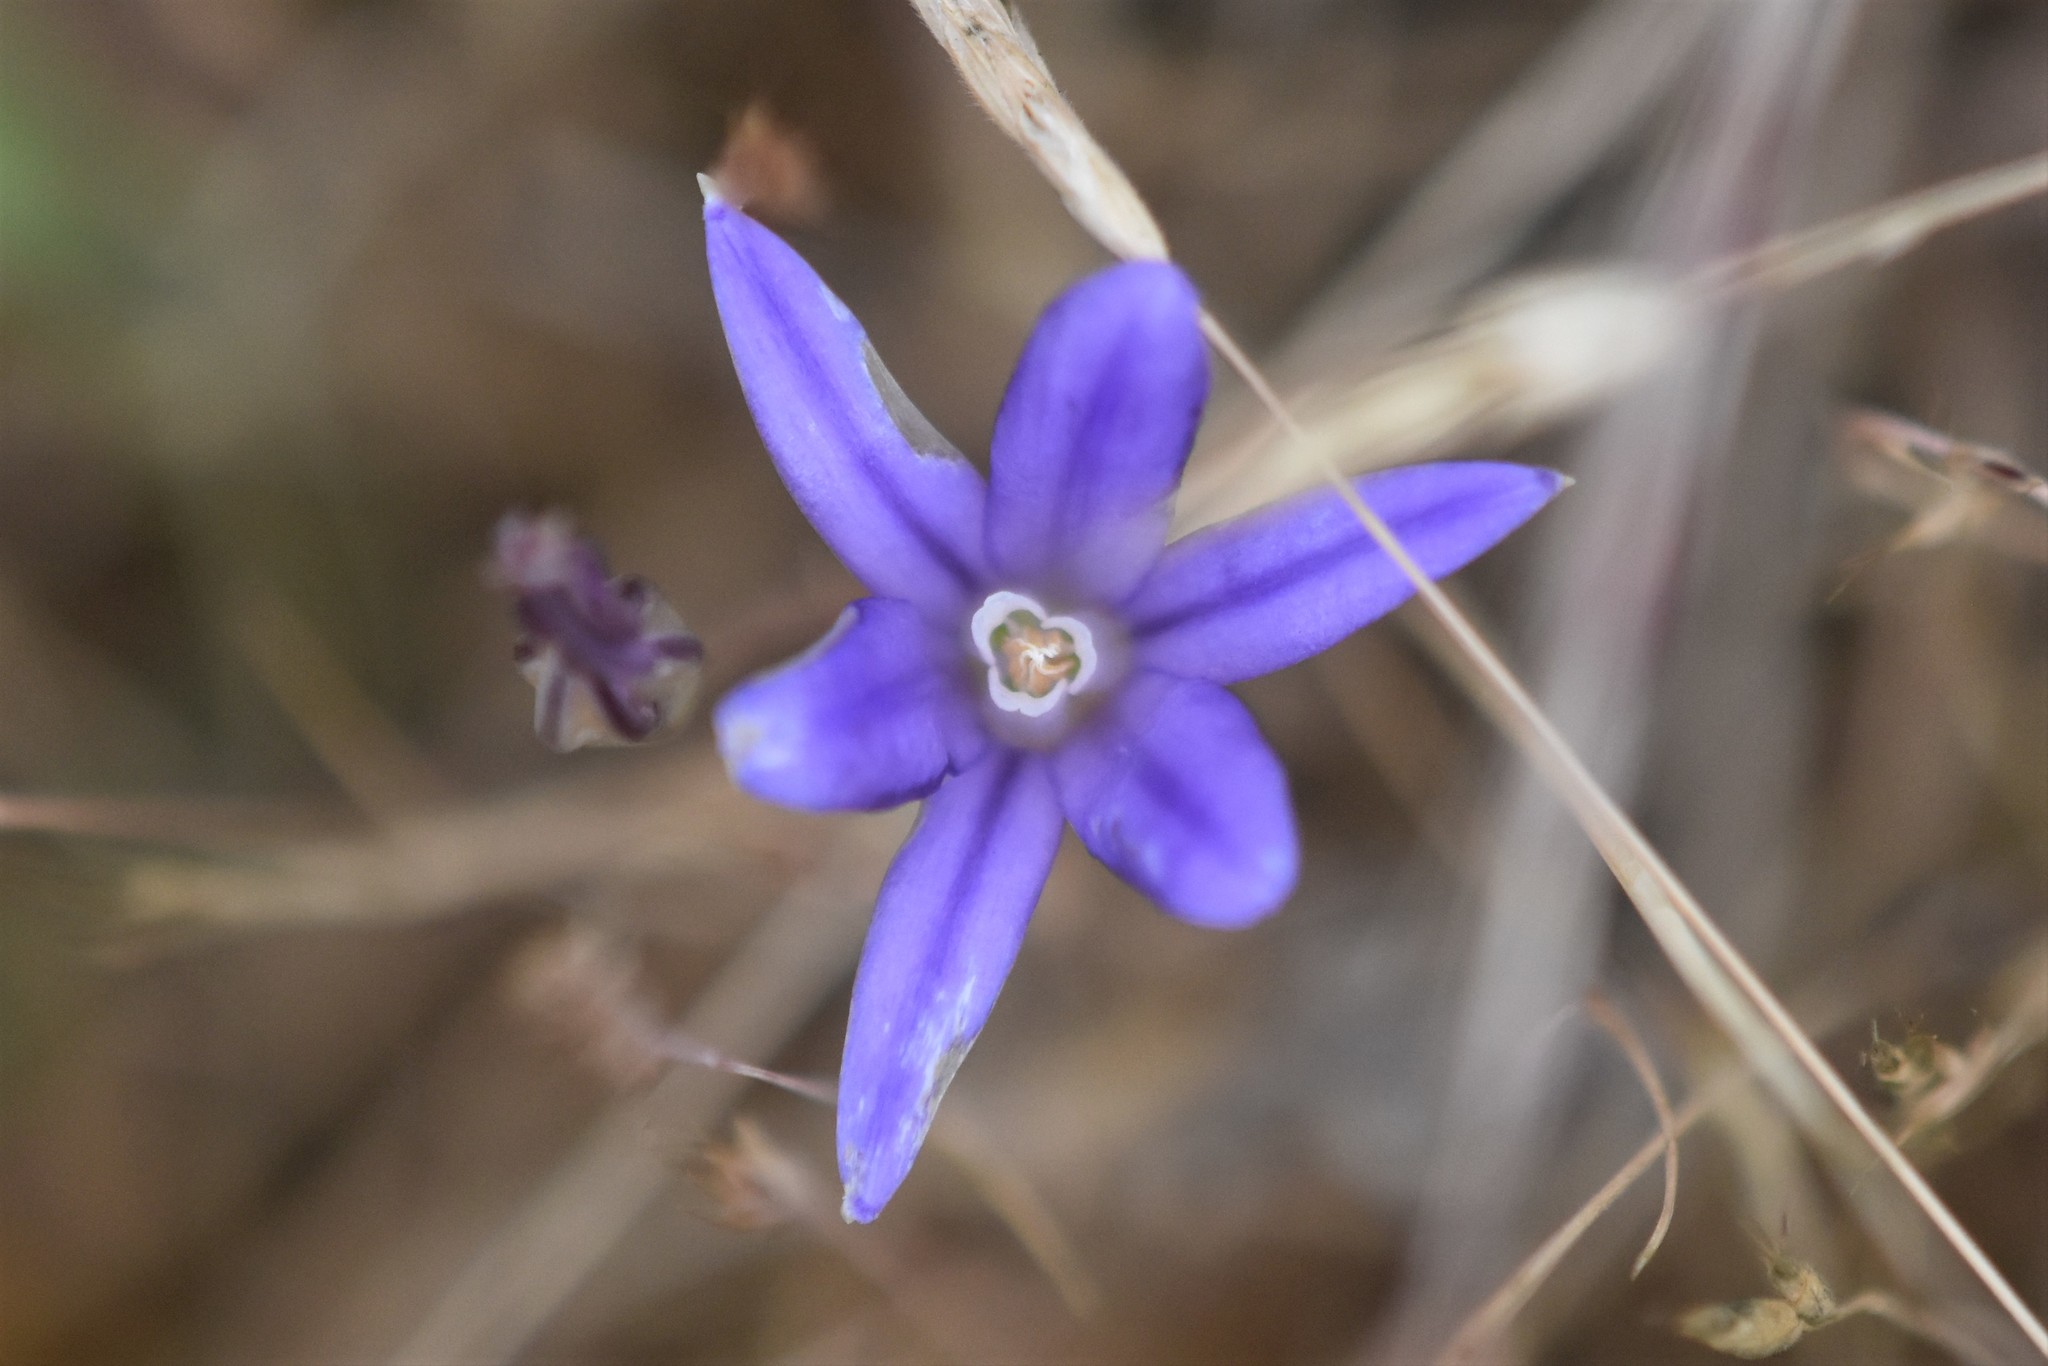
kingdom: Plantae
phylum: Tracheophyta
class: Liliopsida
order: Asparagales
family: Asparagaceae
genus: Brodiaea
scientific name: Brodiaea coronaria
